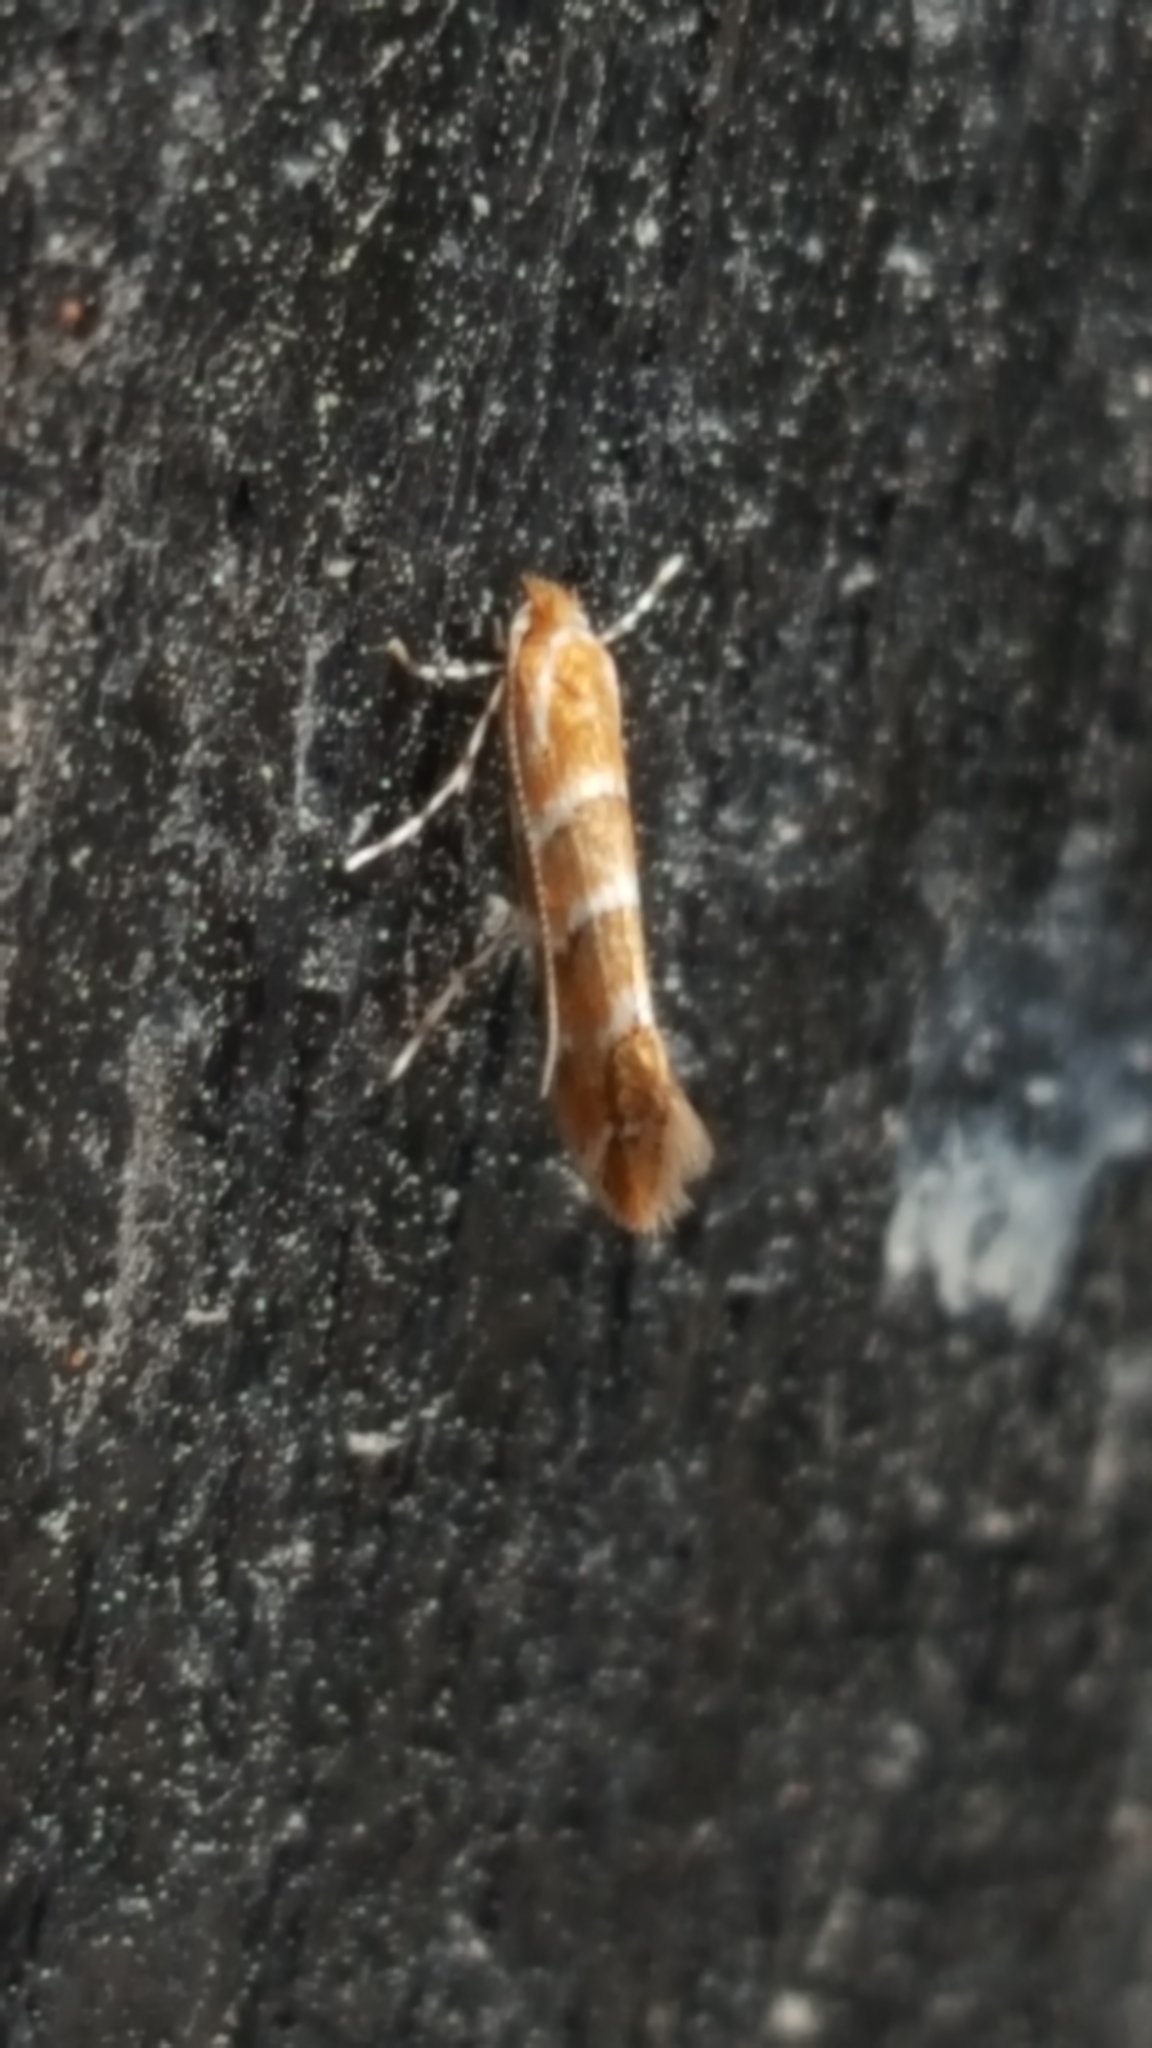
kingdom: Animalia
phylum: Arthropoda
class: Insecta
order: Lepidoptera
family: Gracillariidae
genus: Cameraria
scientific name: Cameraria ohridella
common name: Horse-chestnut leaf-miner
